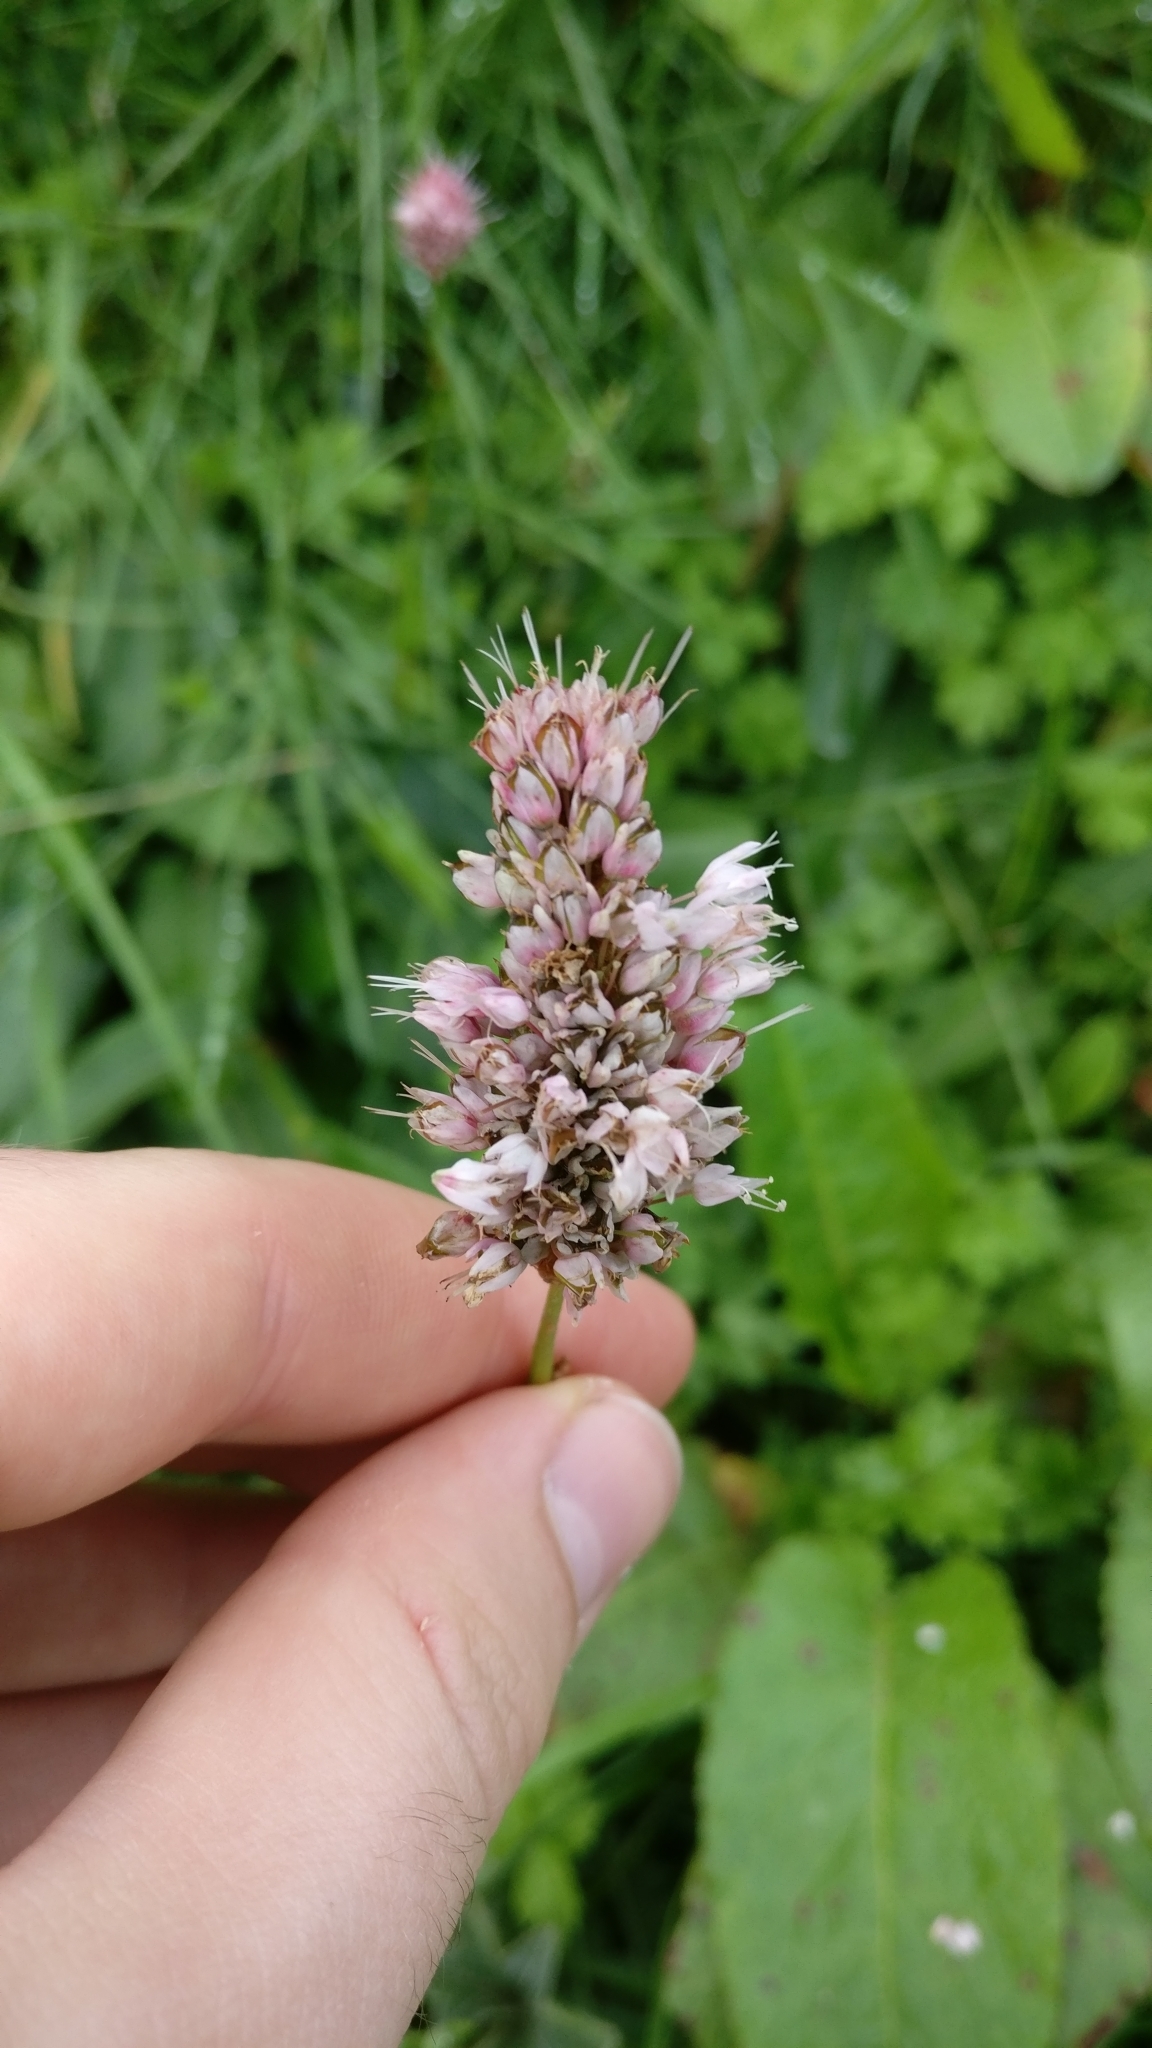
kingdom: Plantae
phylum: Tracheophyta
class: Magnoliopsida
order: Caryophyllales
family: Polygonaceae
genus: Bistorta
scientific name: Bistorta officinalis
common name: Common bistort
